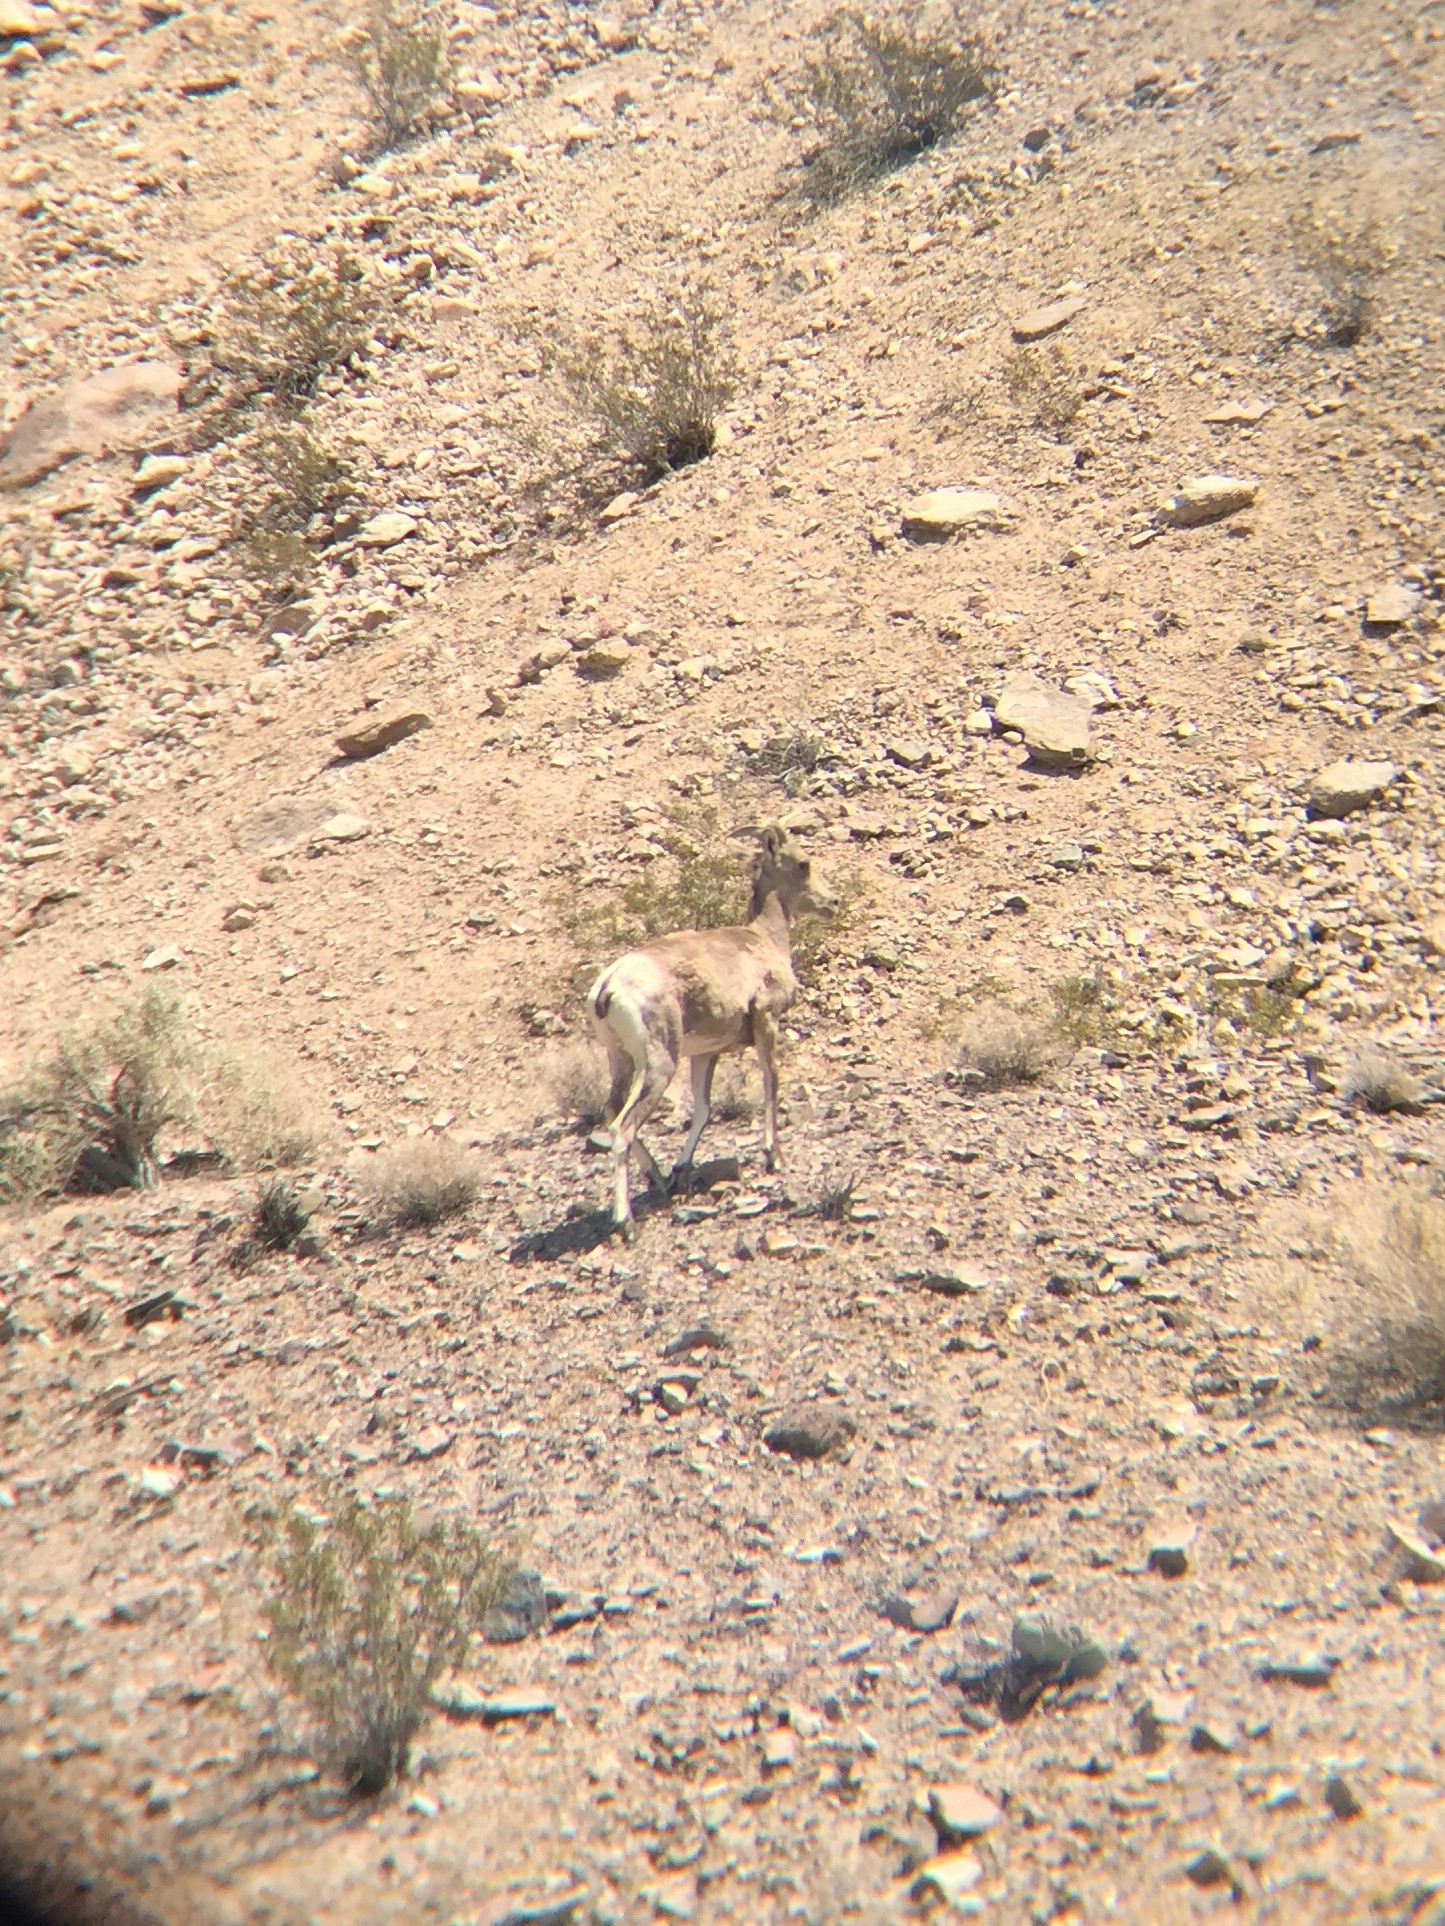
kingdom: Animalia
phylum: Chordata
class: Mammalia
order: Artiodactyla
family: Bovidae
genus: Ovis
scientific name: Ovis canadensis
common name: Bighorn sheep
